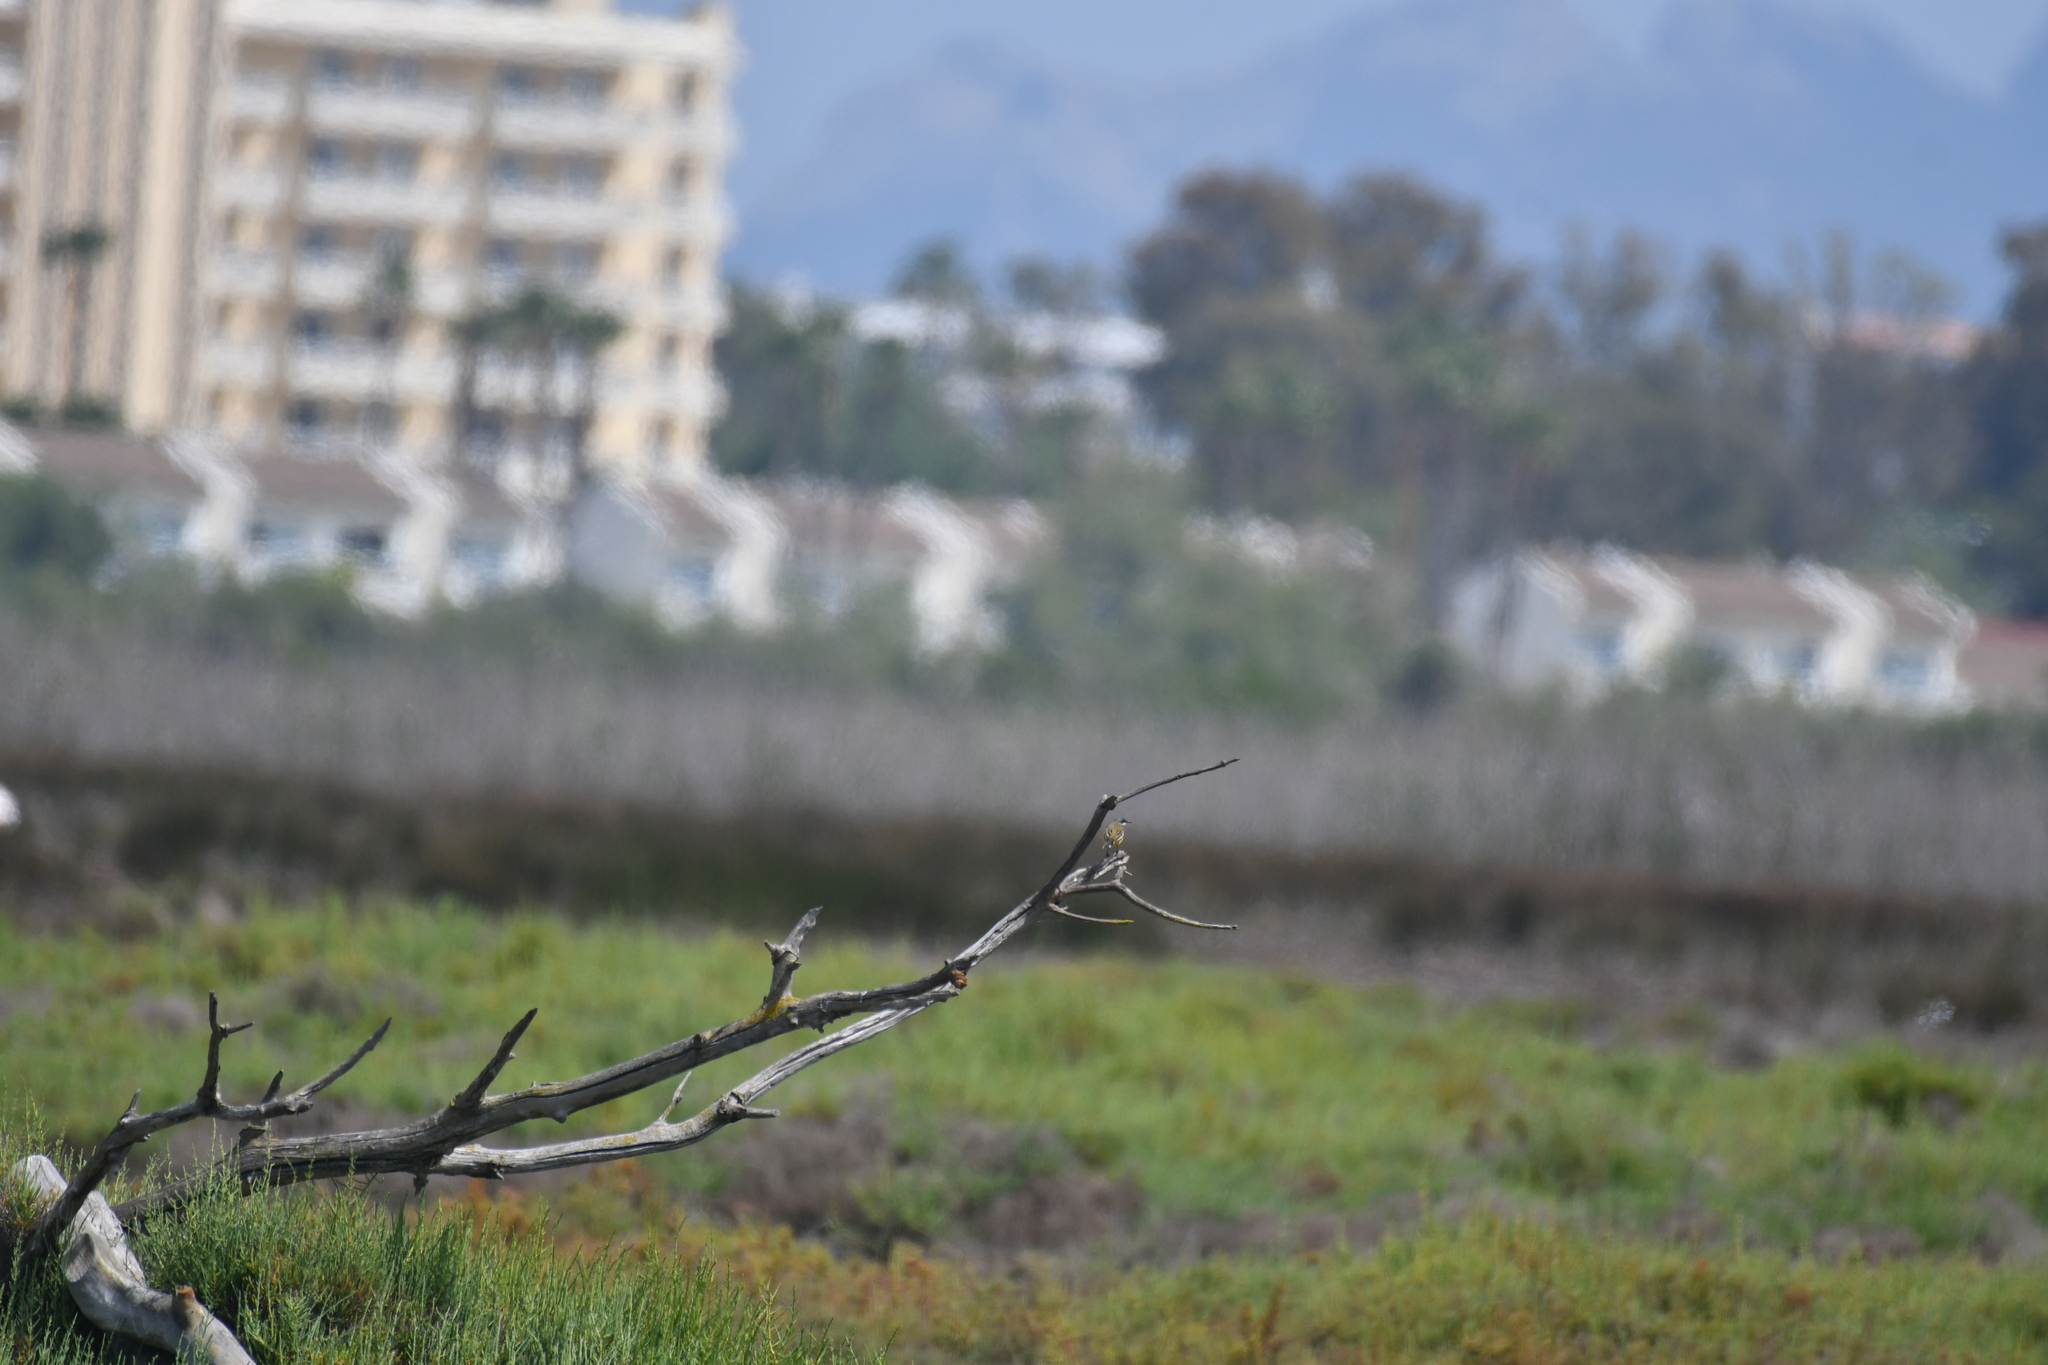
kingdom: Animalia
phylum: Chordata
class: Aves
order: Passeriformes
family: Motacillidae
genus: Motacilla
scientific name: Motacilla flava
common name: Western yellow wagtail
